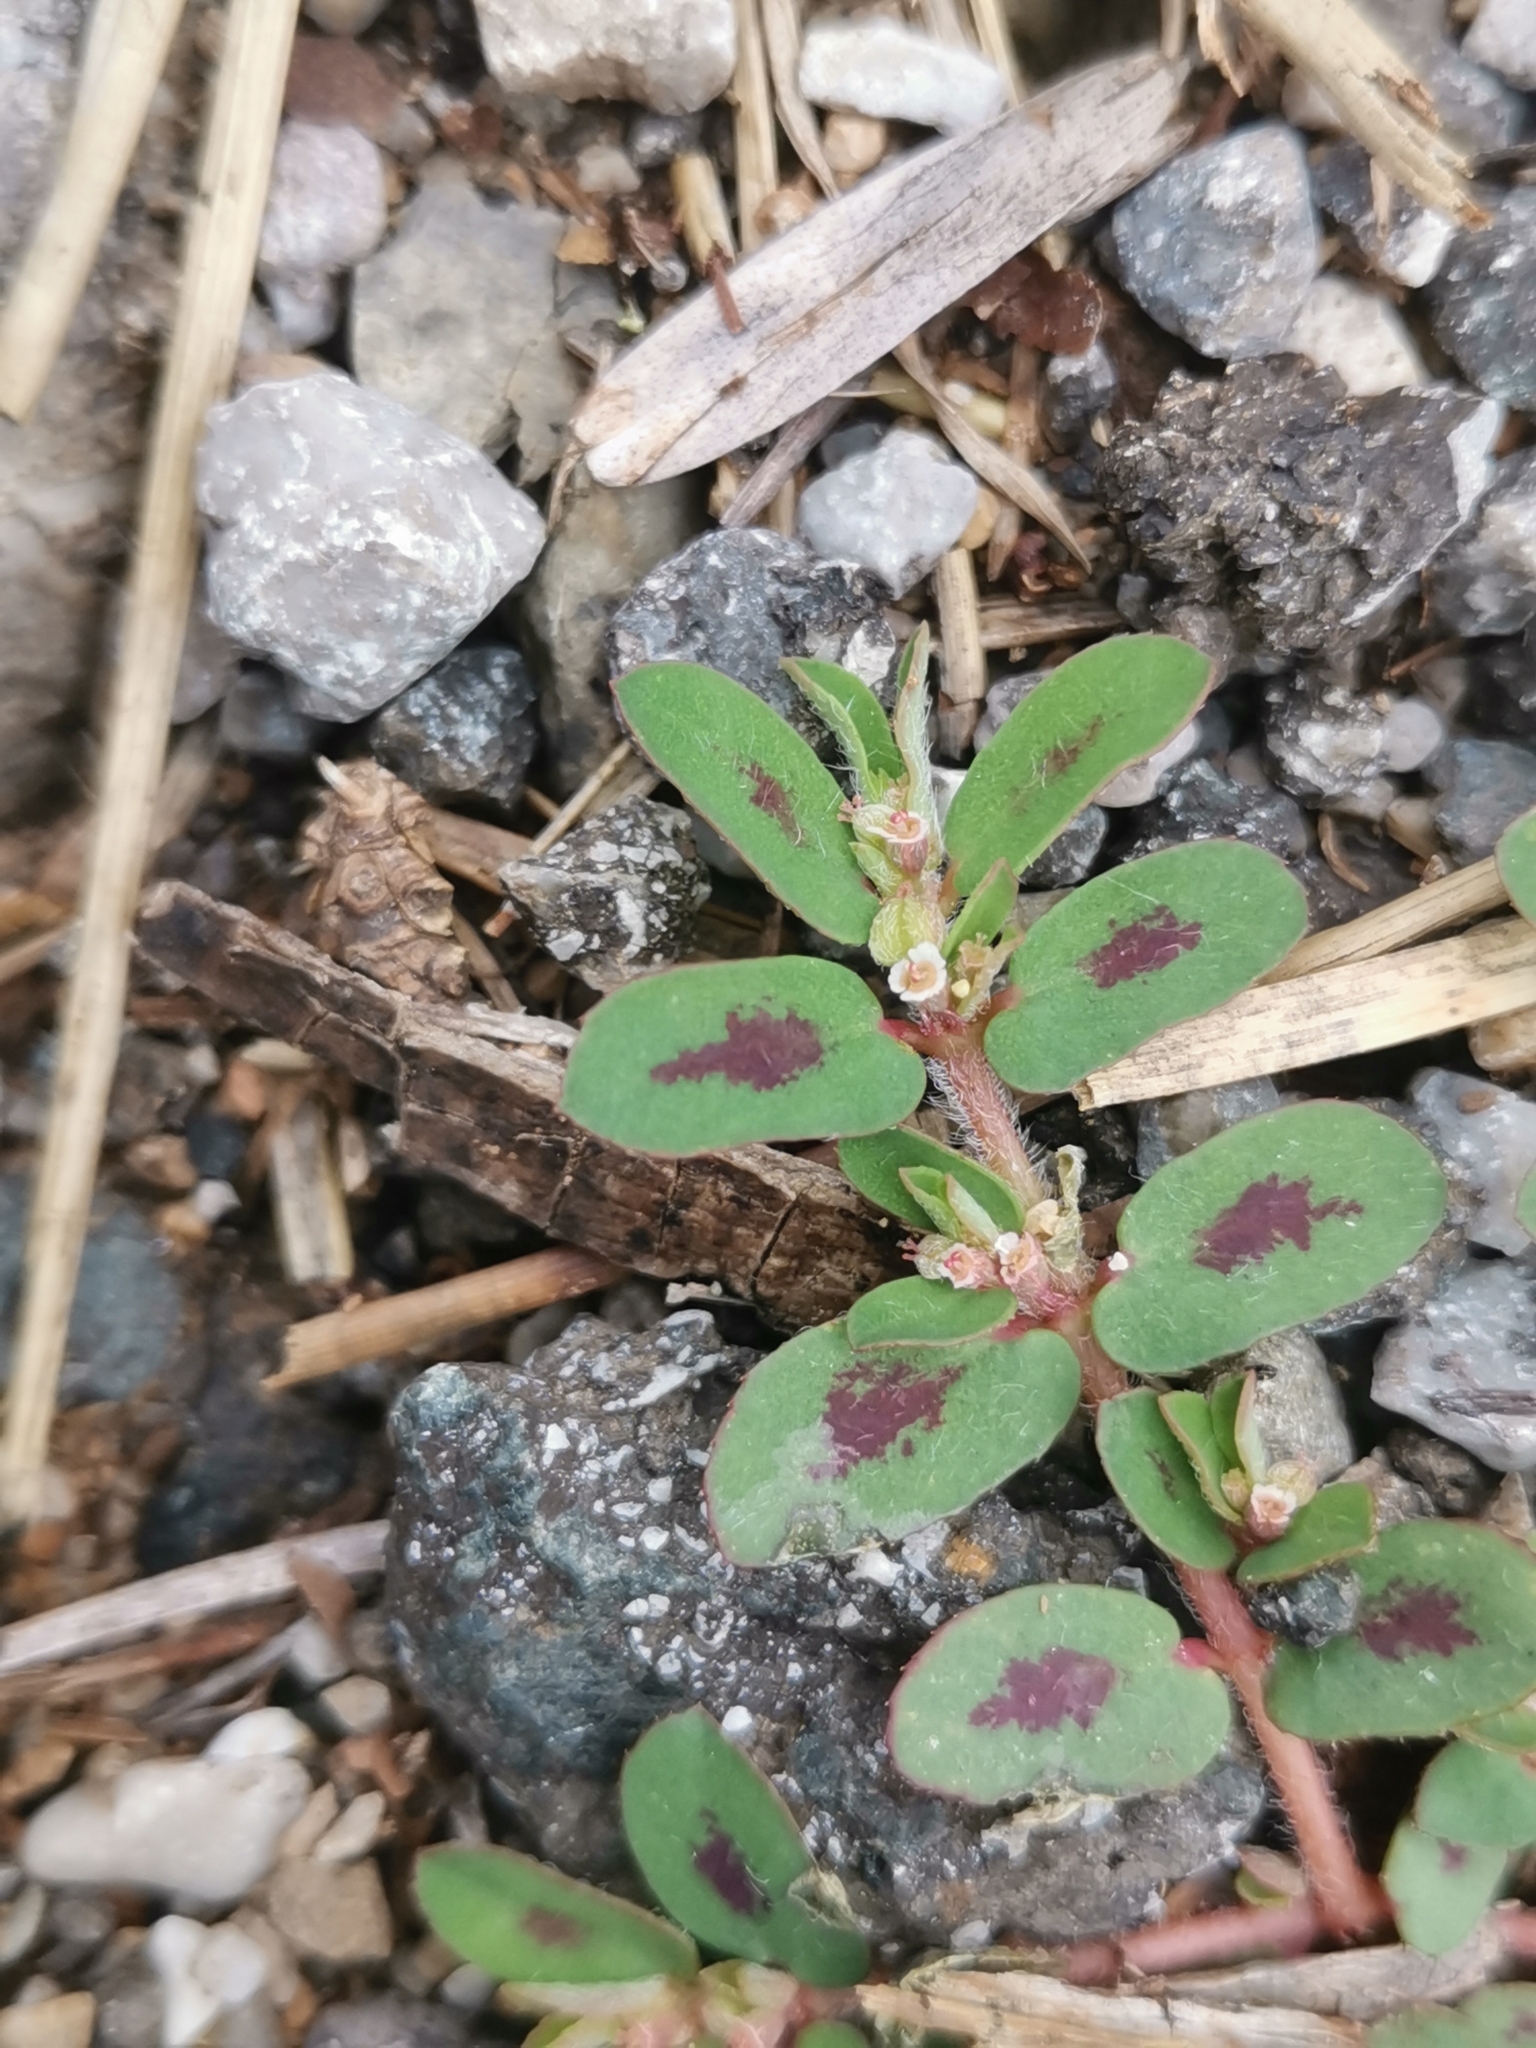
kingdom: Plantae
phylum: Tracheophyta
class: Magnoliopsida
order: Malpighiales
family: Euphorbiaceae
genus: Euphorbia
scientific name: Euphorbia maculata
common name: Spotted spurge
